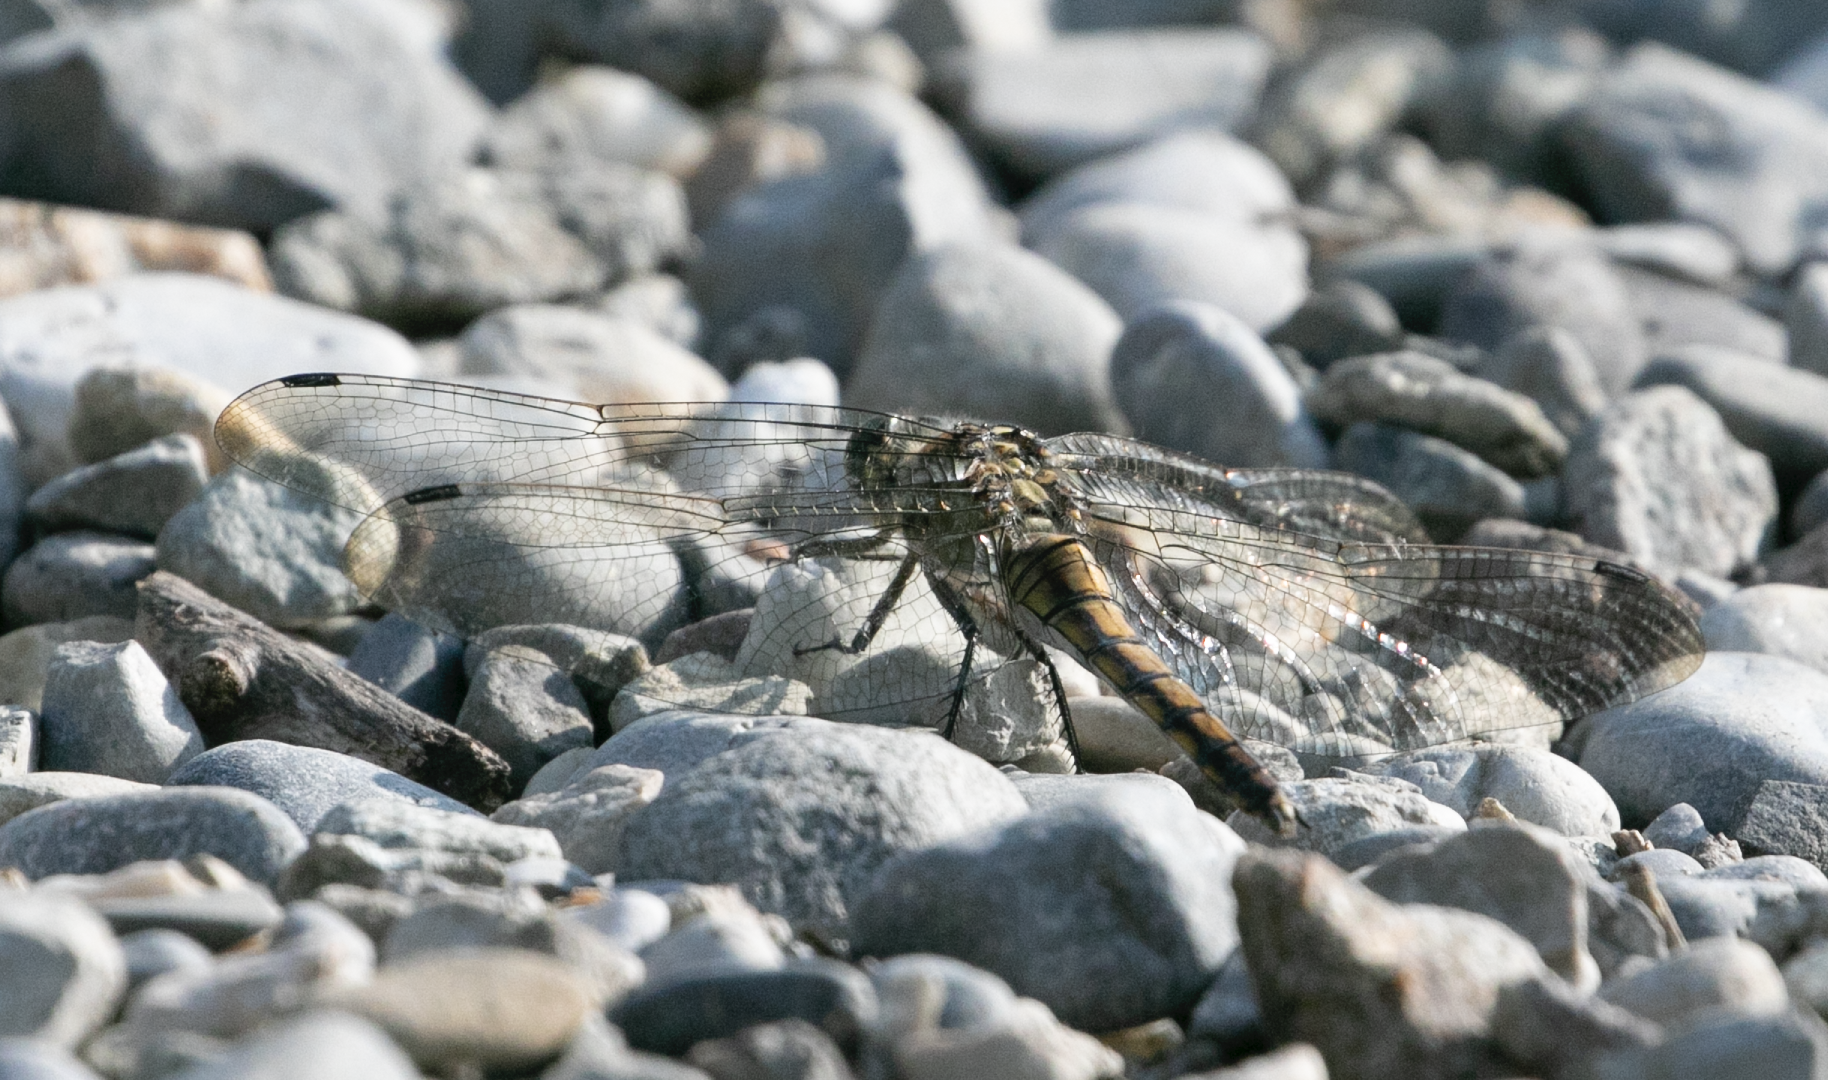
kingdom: Animalia
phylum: Arthropoda
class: Insecta
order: Odonata
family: Libellulidae
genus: Orthetrum
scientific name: Orthetrum cancellatum
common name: Black-tailed skimmer
